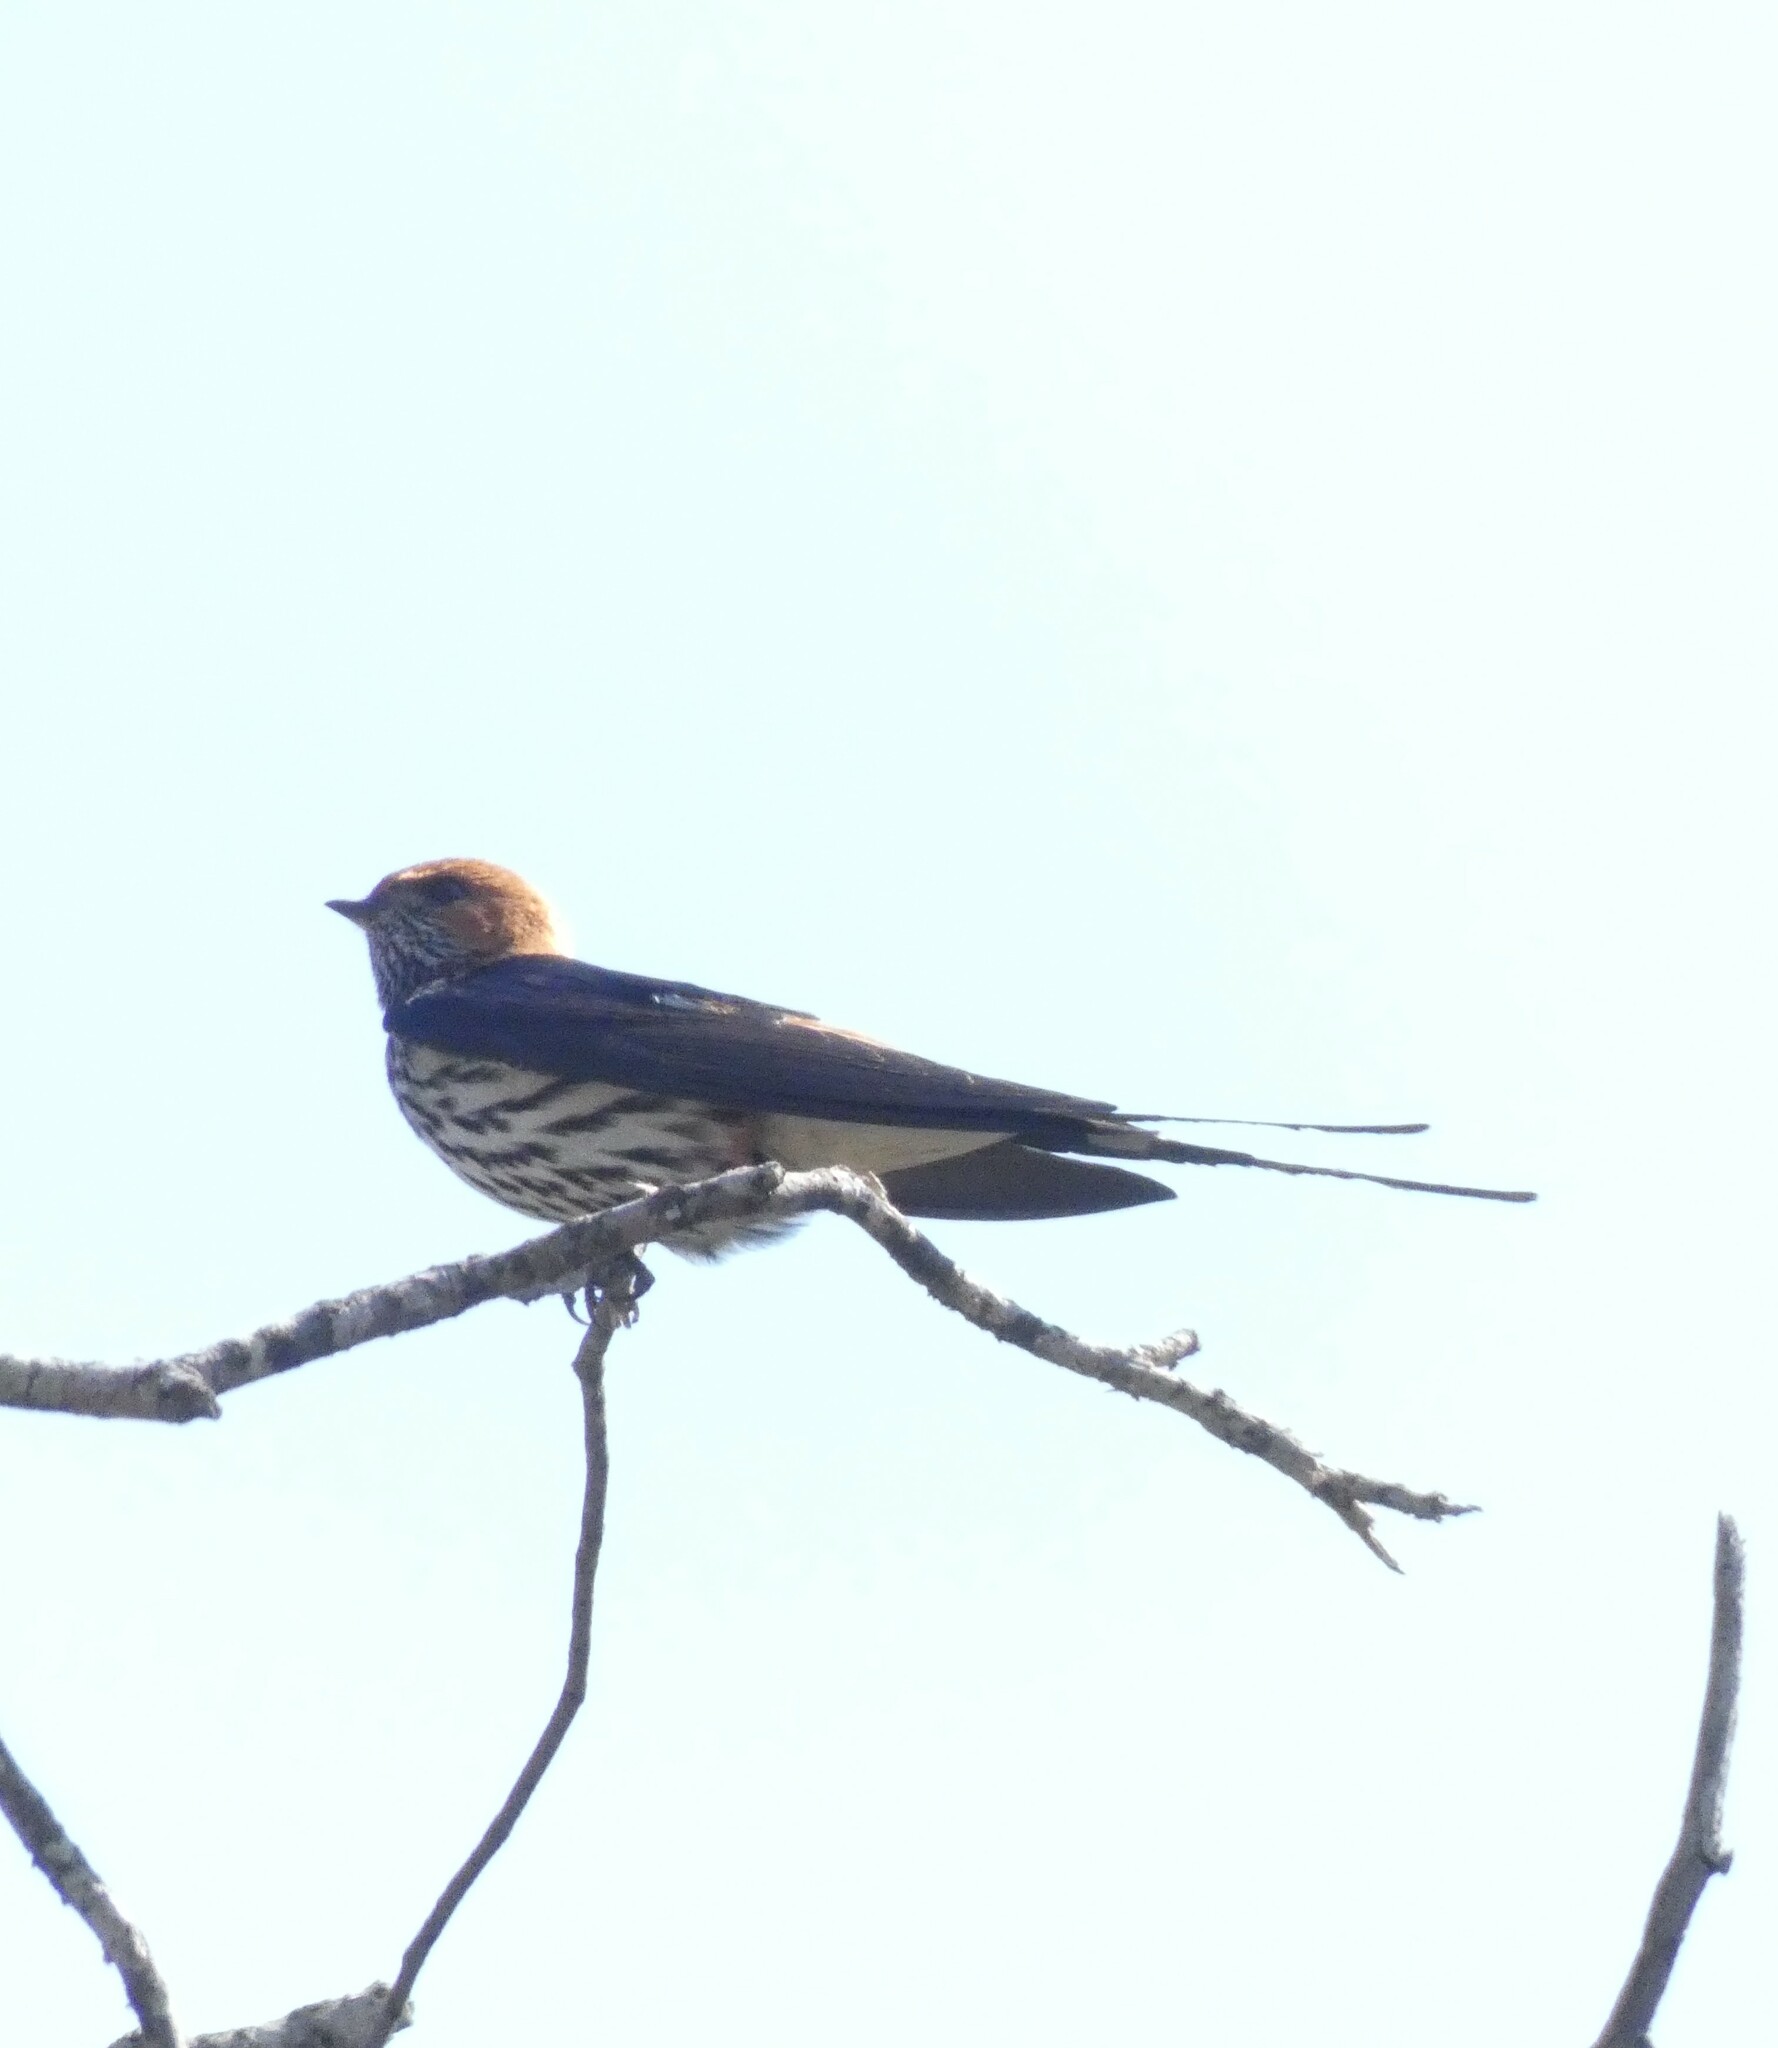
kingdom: Animalia
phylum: Chordata
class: Aves
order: Passeriformes
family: Hirundinidae
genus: Cecropis
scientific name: Cecropis abyssinica
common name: Lesser striped-swallow
